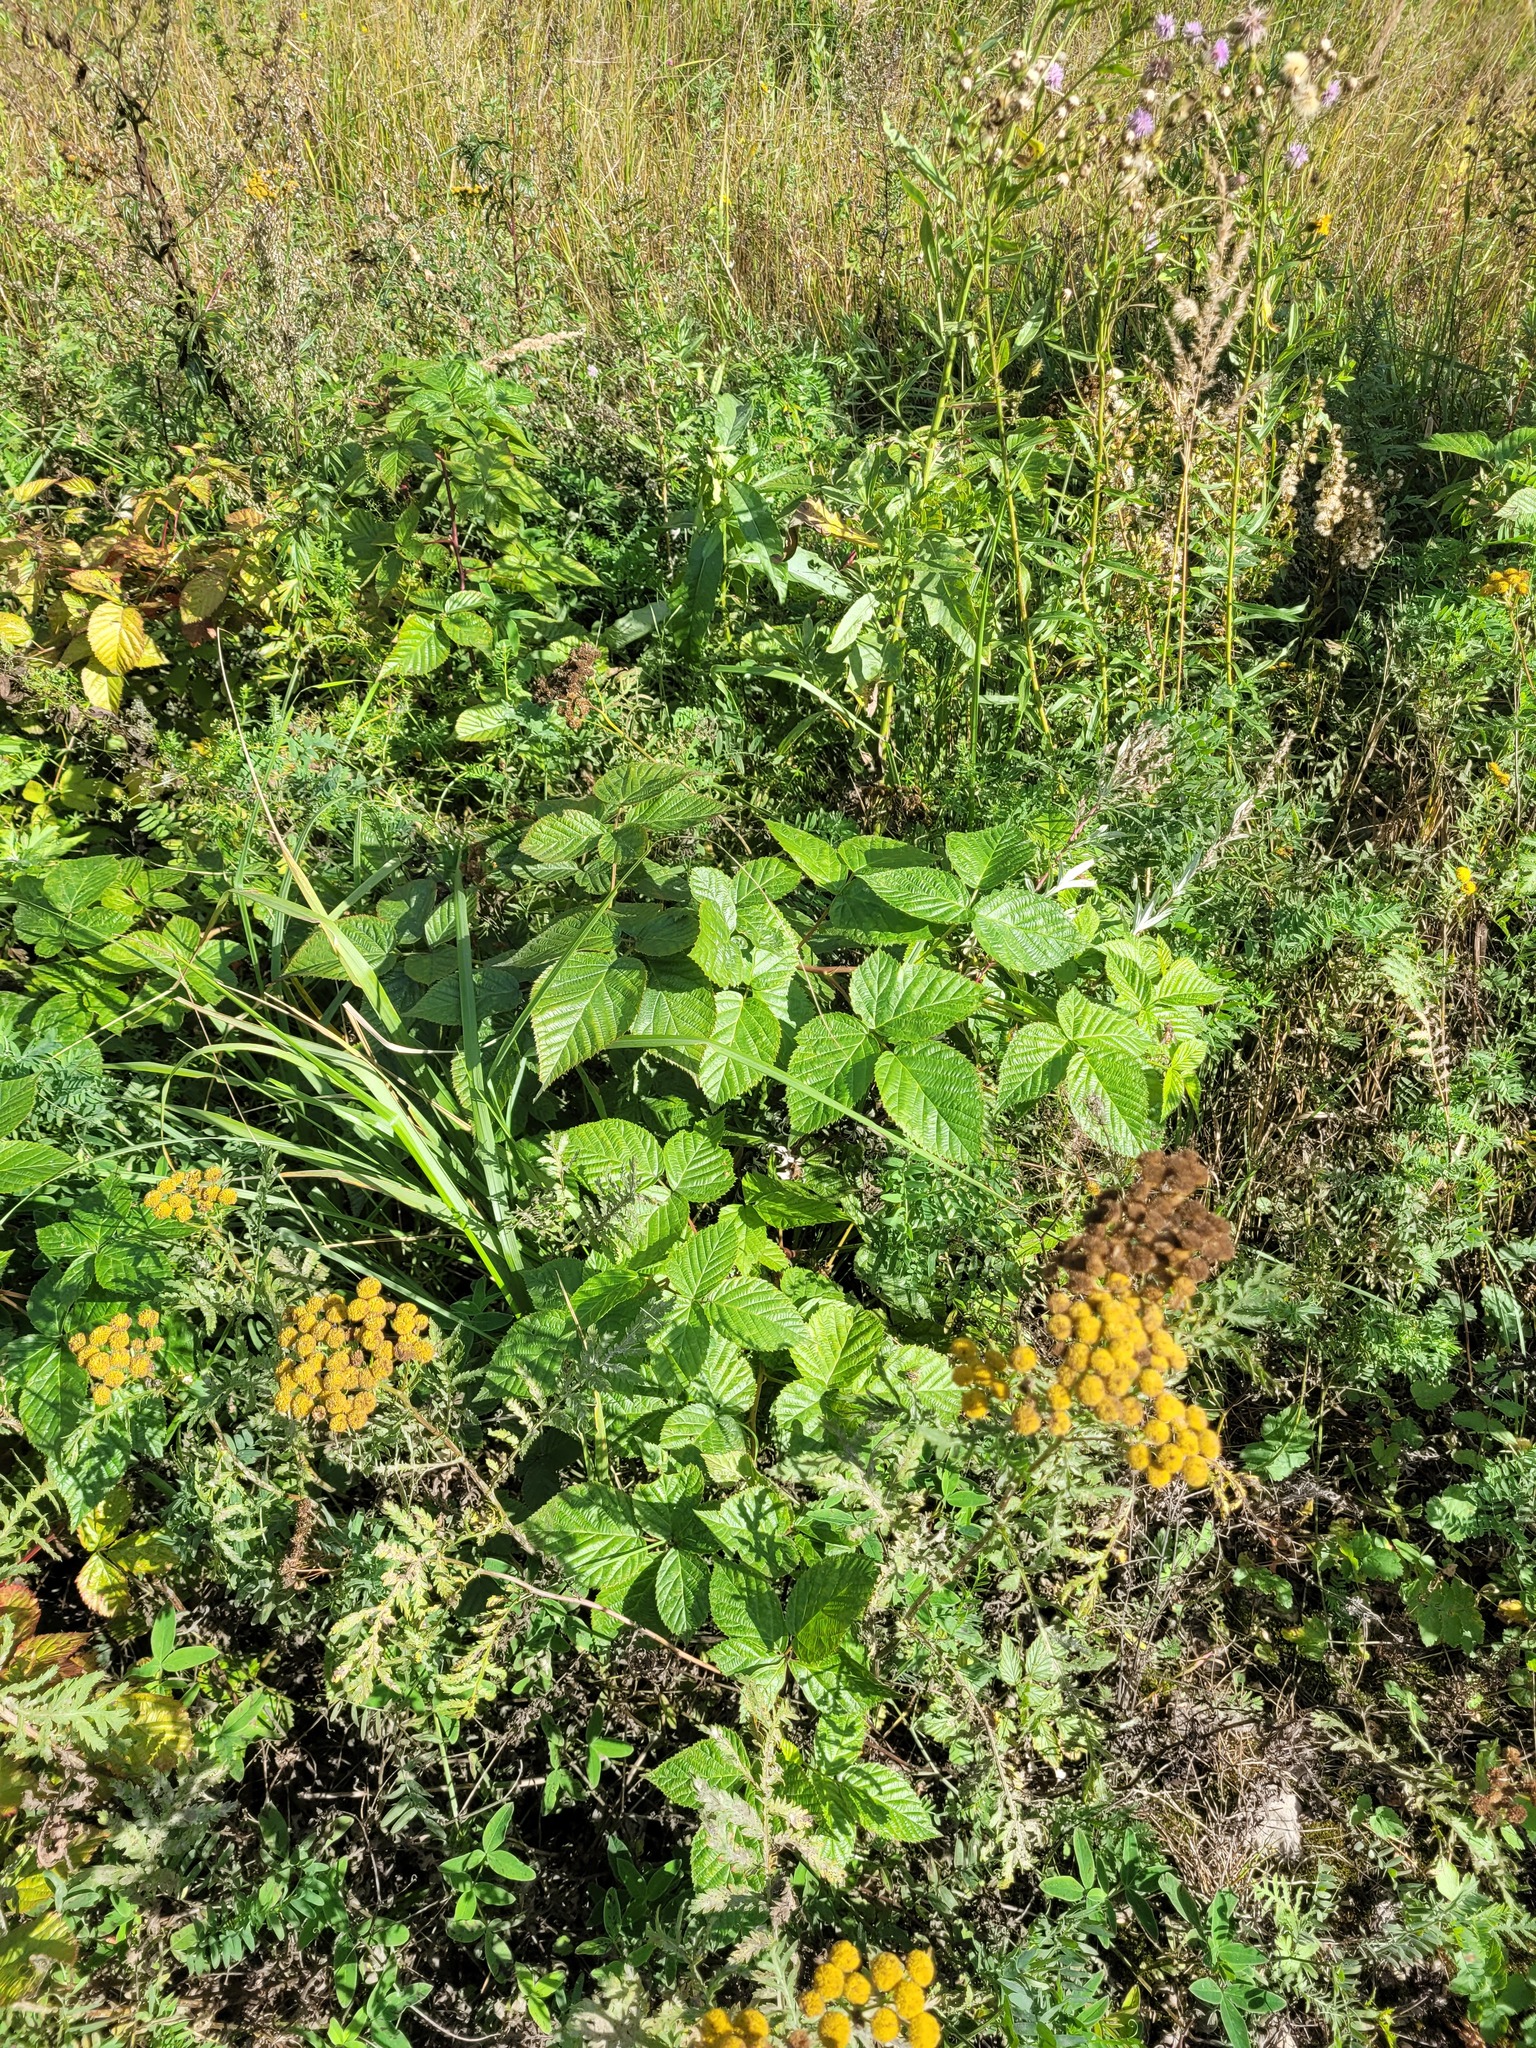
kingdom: Plantae
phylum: Tracheophyta
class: Magnoliopsida
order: Rosales
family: Rosaceae
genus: Rubus
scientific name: Rubus polonicus
